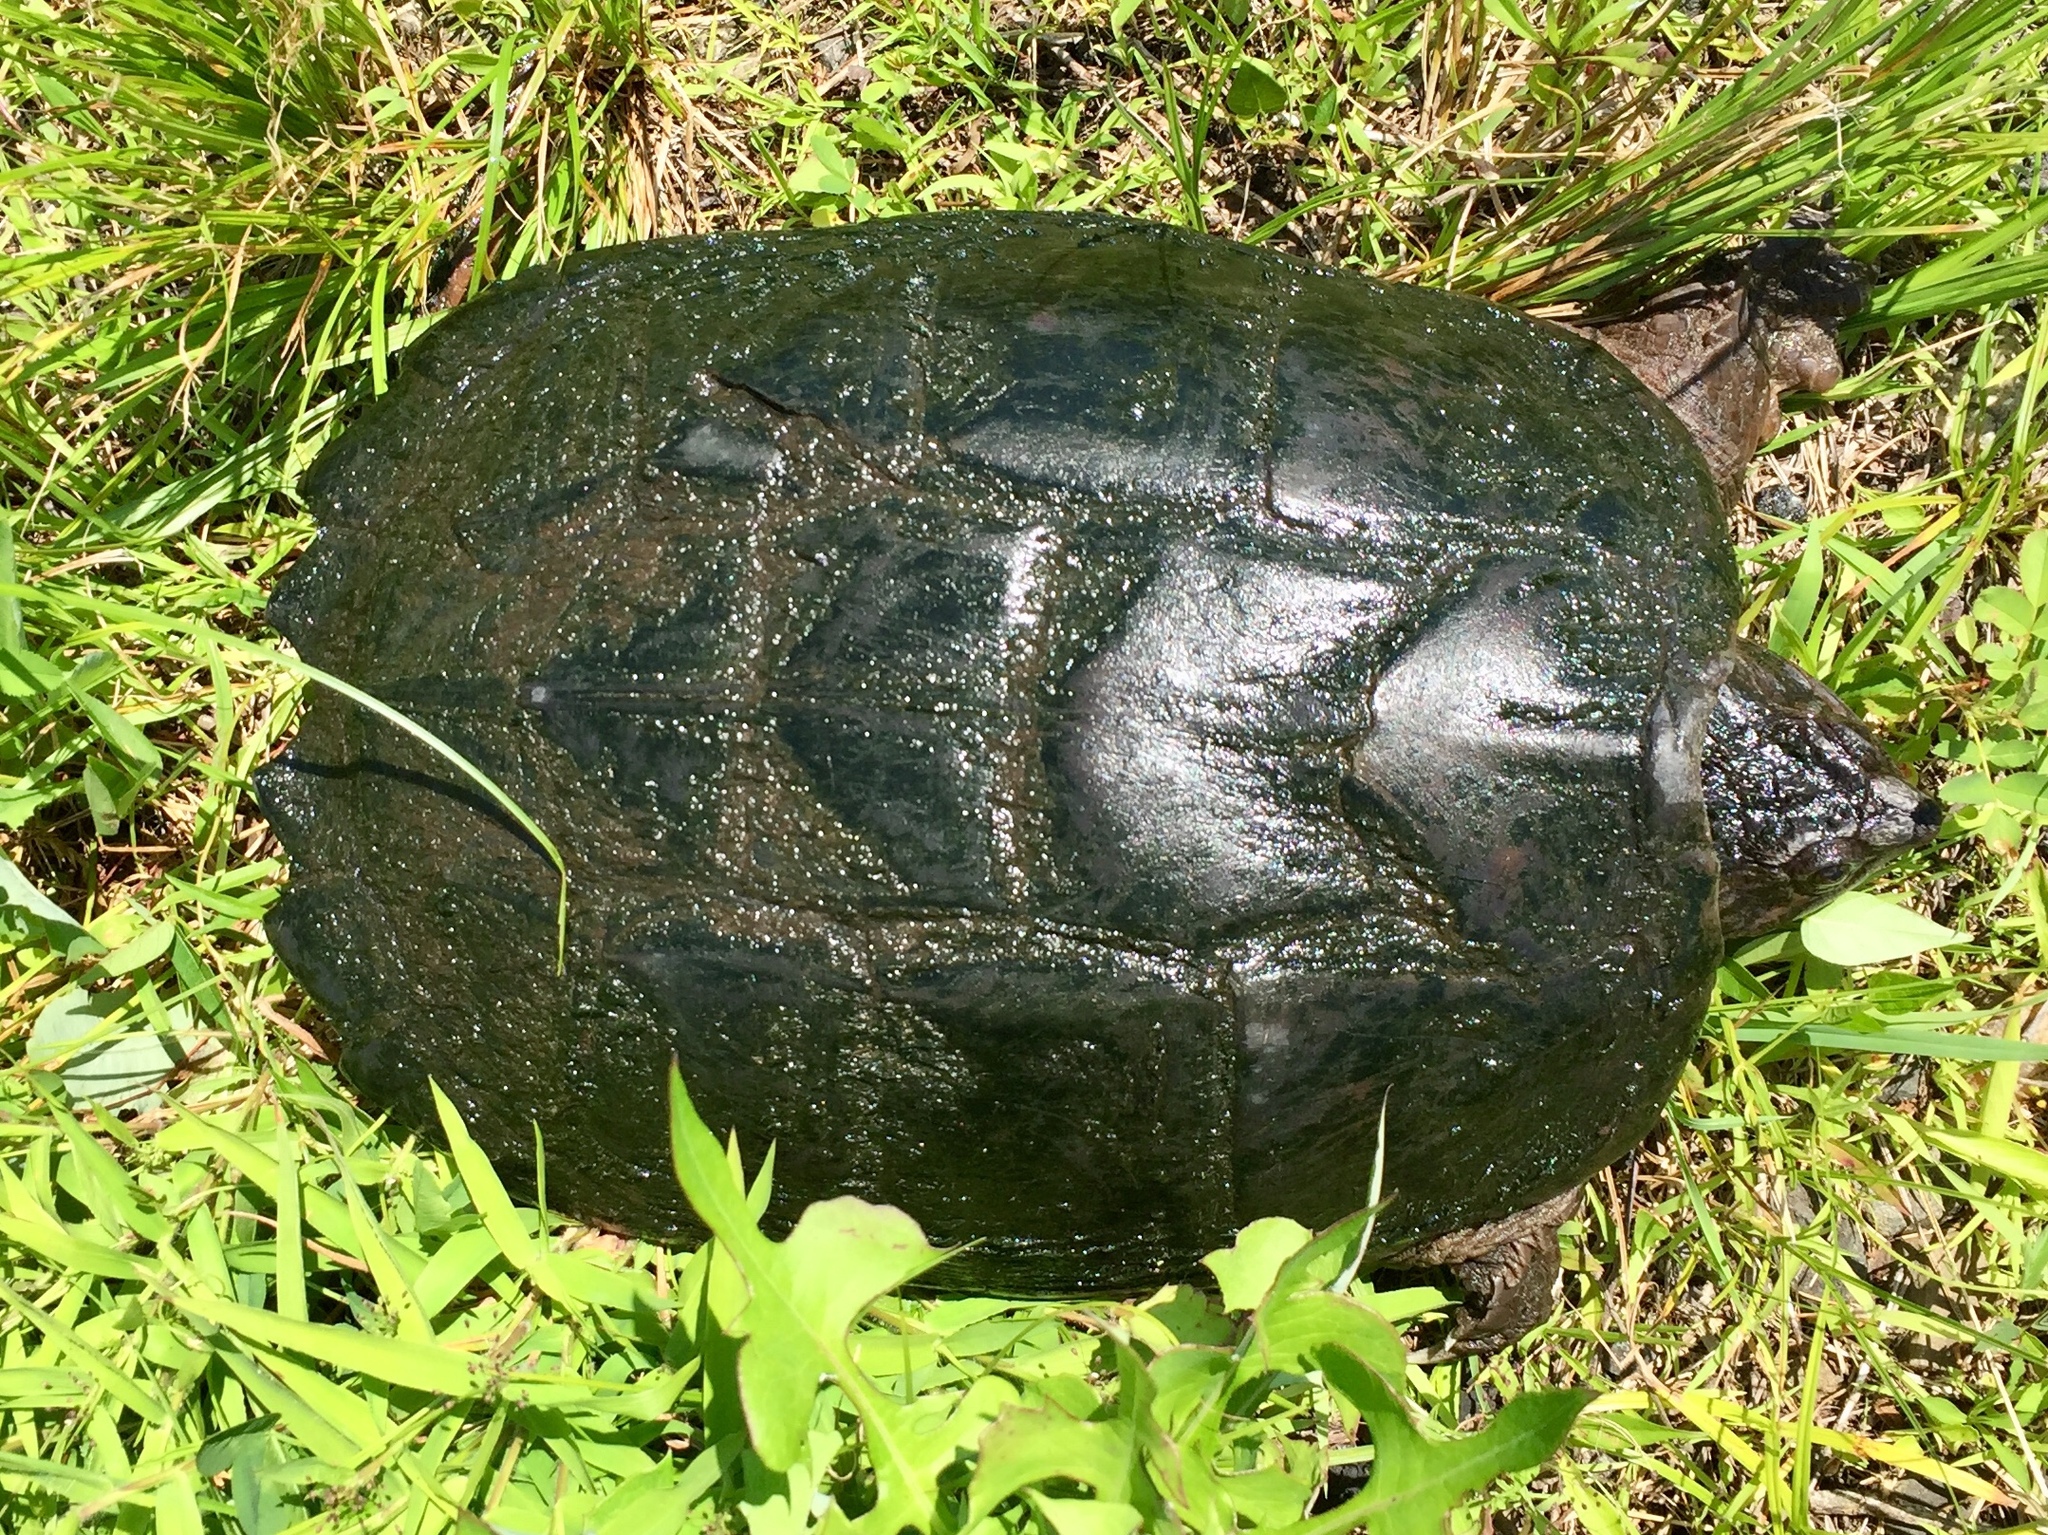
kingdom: Animalia
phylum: Chordata
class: Testudines
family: Chelydridae
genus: Chelydra
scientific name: Chelydra serpentina
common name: Common snapping turtle
